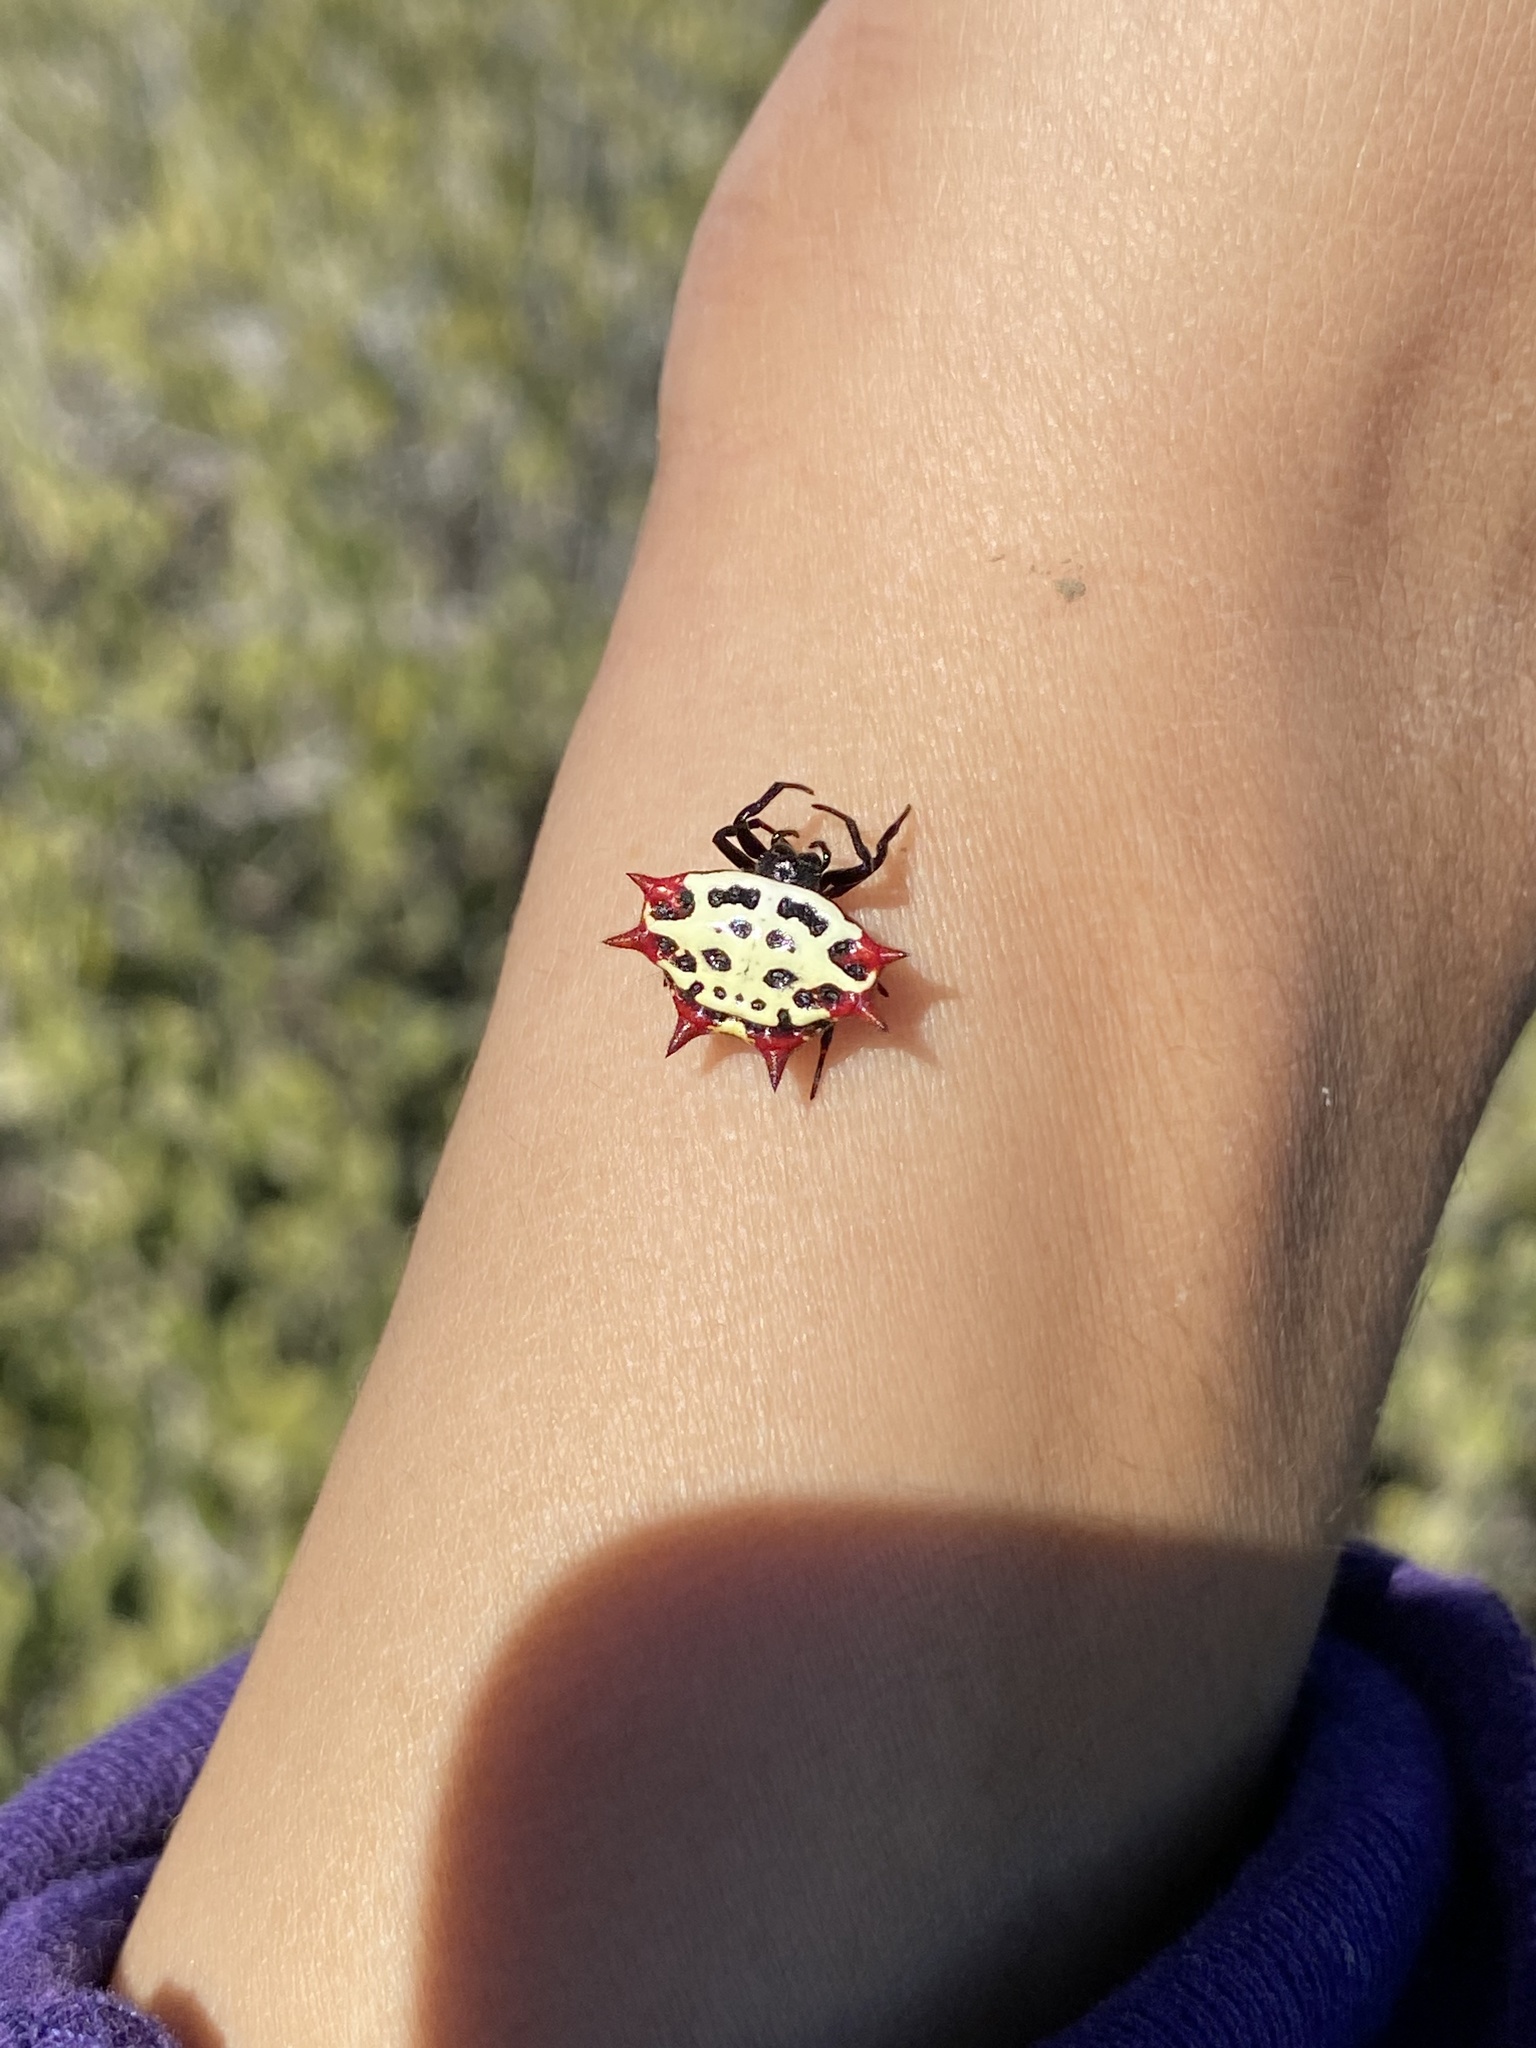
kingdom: Animalia
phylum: Arthropoda
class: Arachnida
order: Araneae
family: Araneidae
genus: Gasteracantha
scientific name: Gasteracantha cancriformis
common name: Orb weavers
